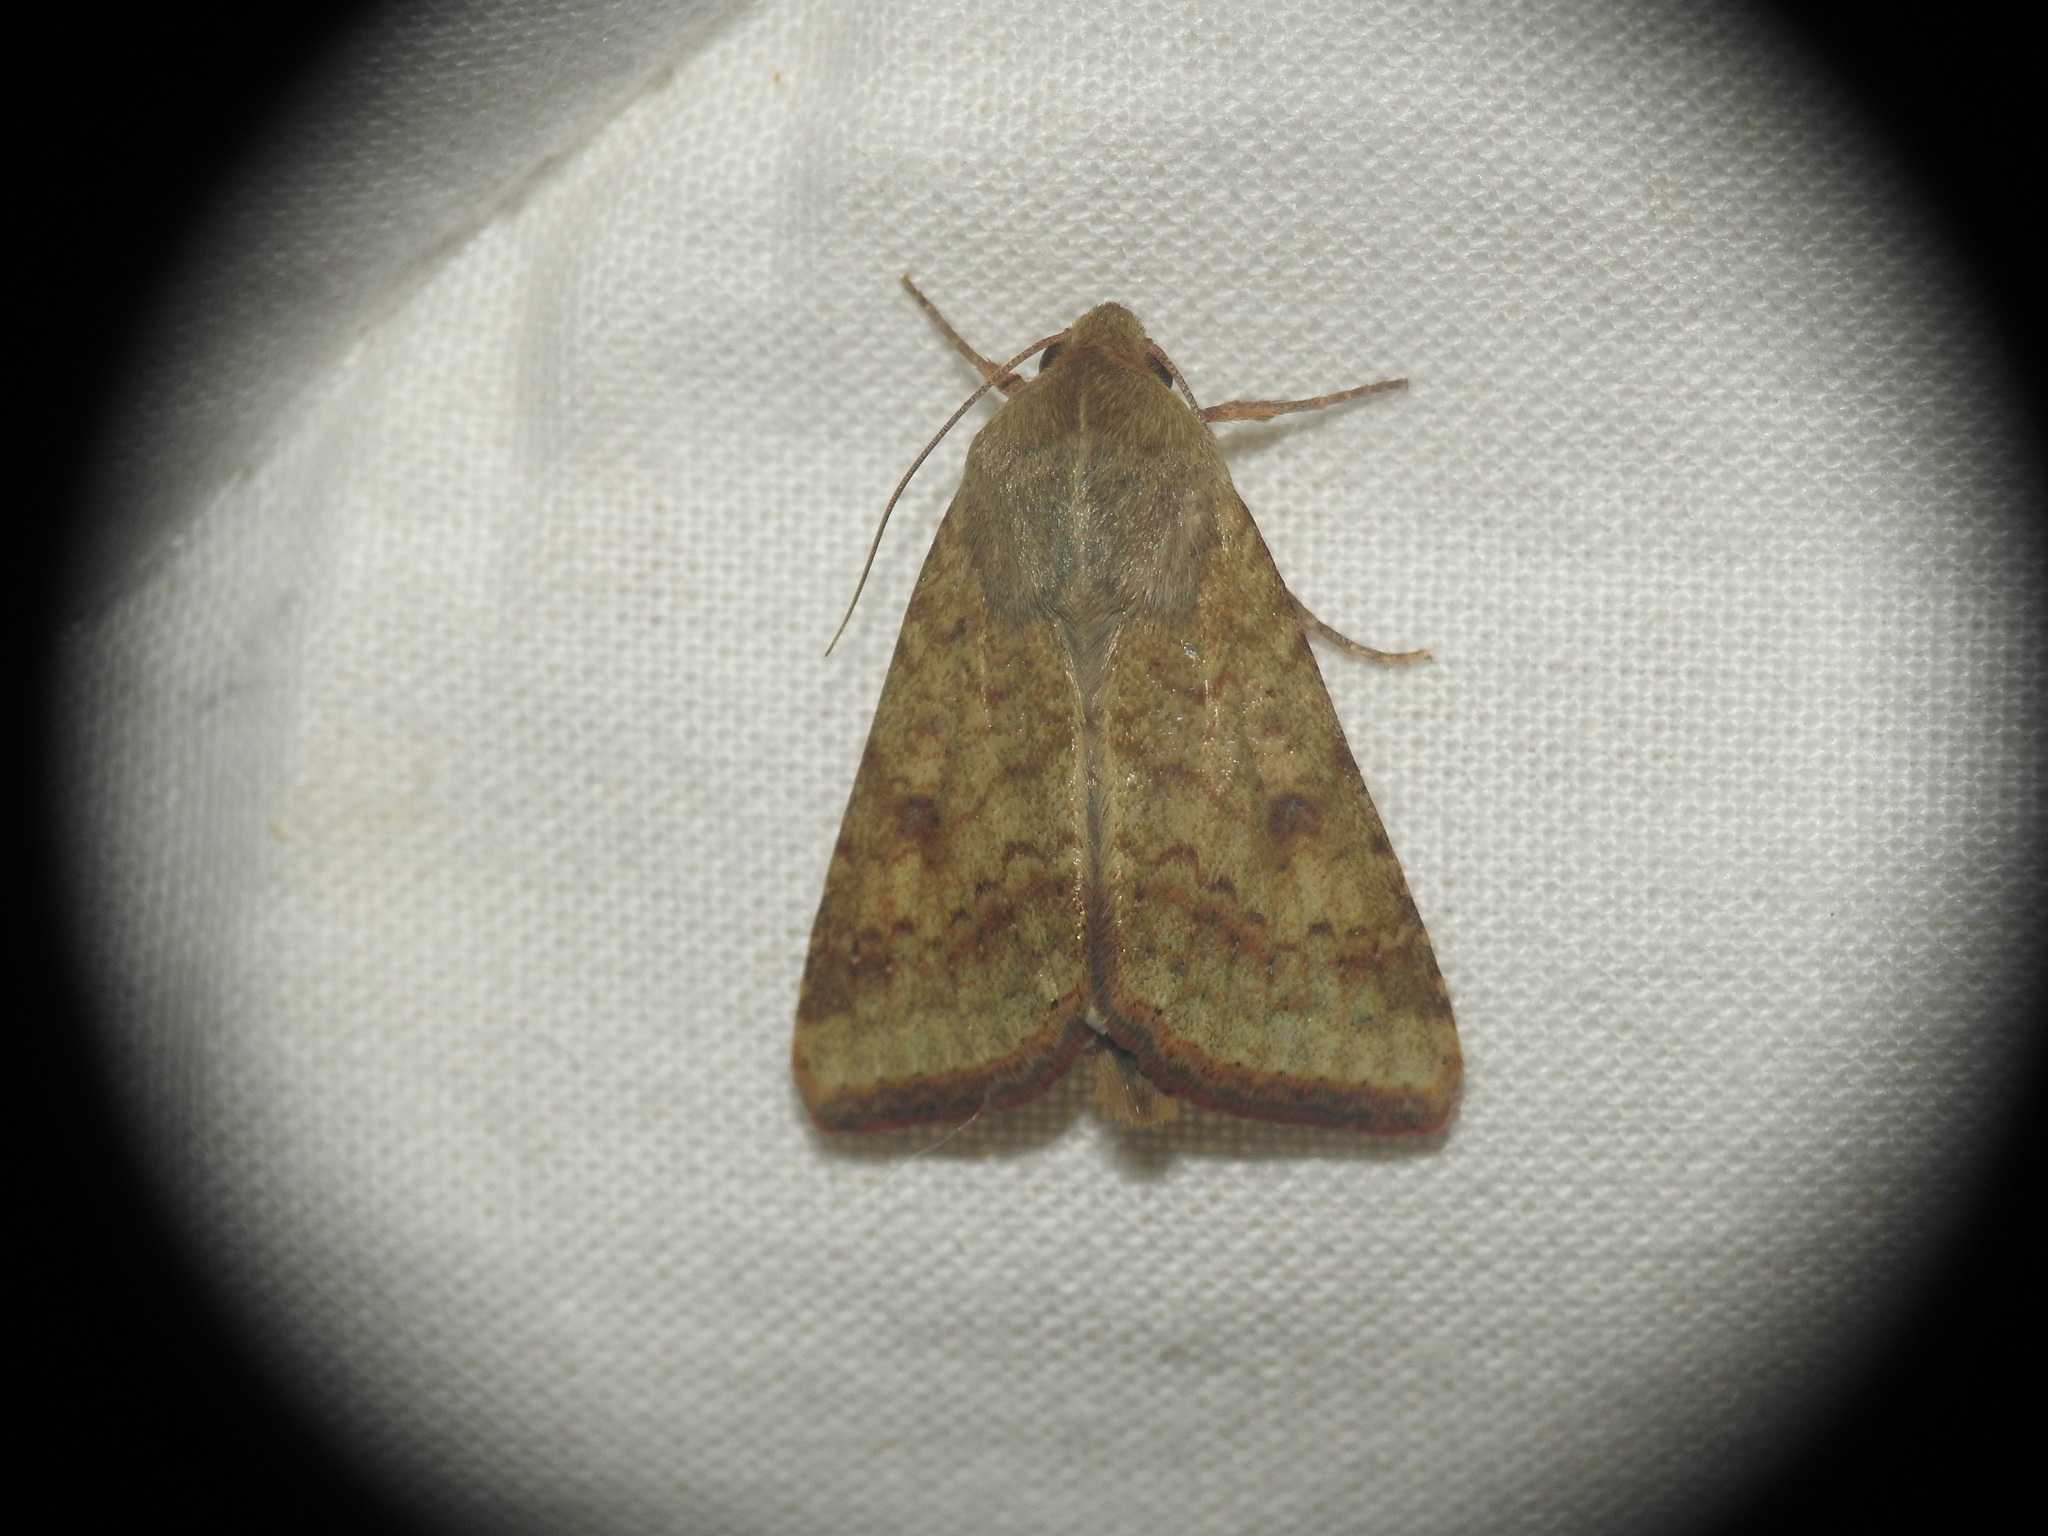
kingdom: Animalia
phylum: Arthropoda
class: Insecta
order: Lepidoptera
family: Noctuidae
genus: Helicoverpa
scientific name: Helicoverpa armigera
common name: Cotton bollworm
